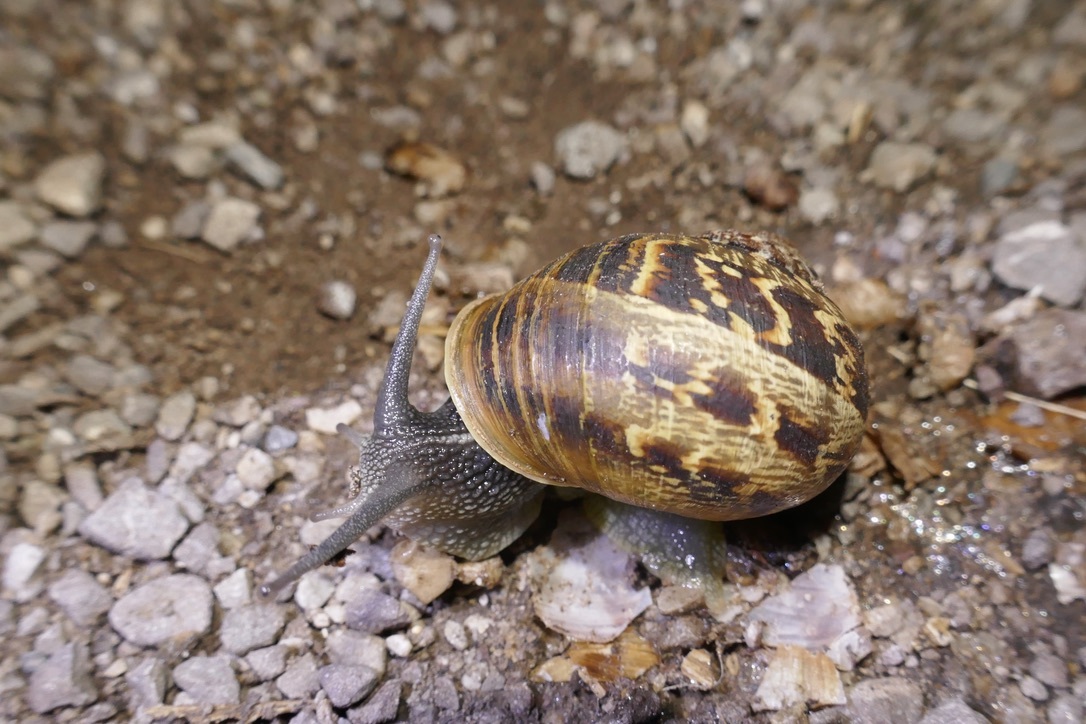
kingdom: Animalia
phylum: Mollusca
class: Gastropoda
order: Stylommatophora
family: Helicidae
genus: Cornu
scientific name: Cornu aspersum
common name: Brown garden snail
